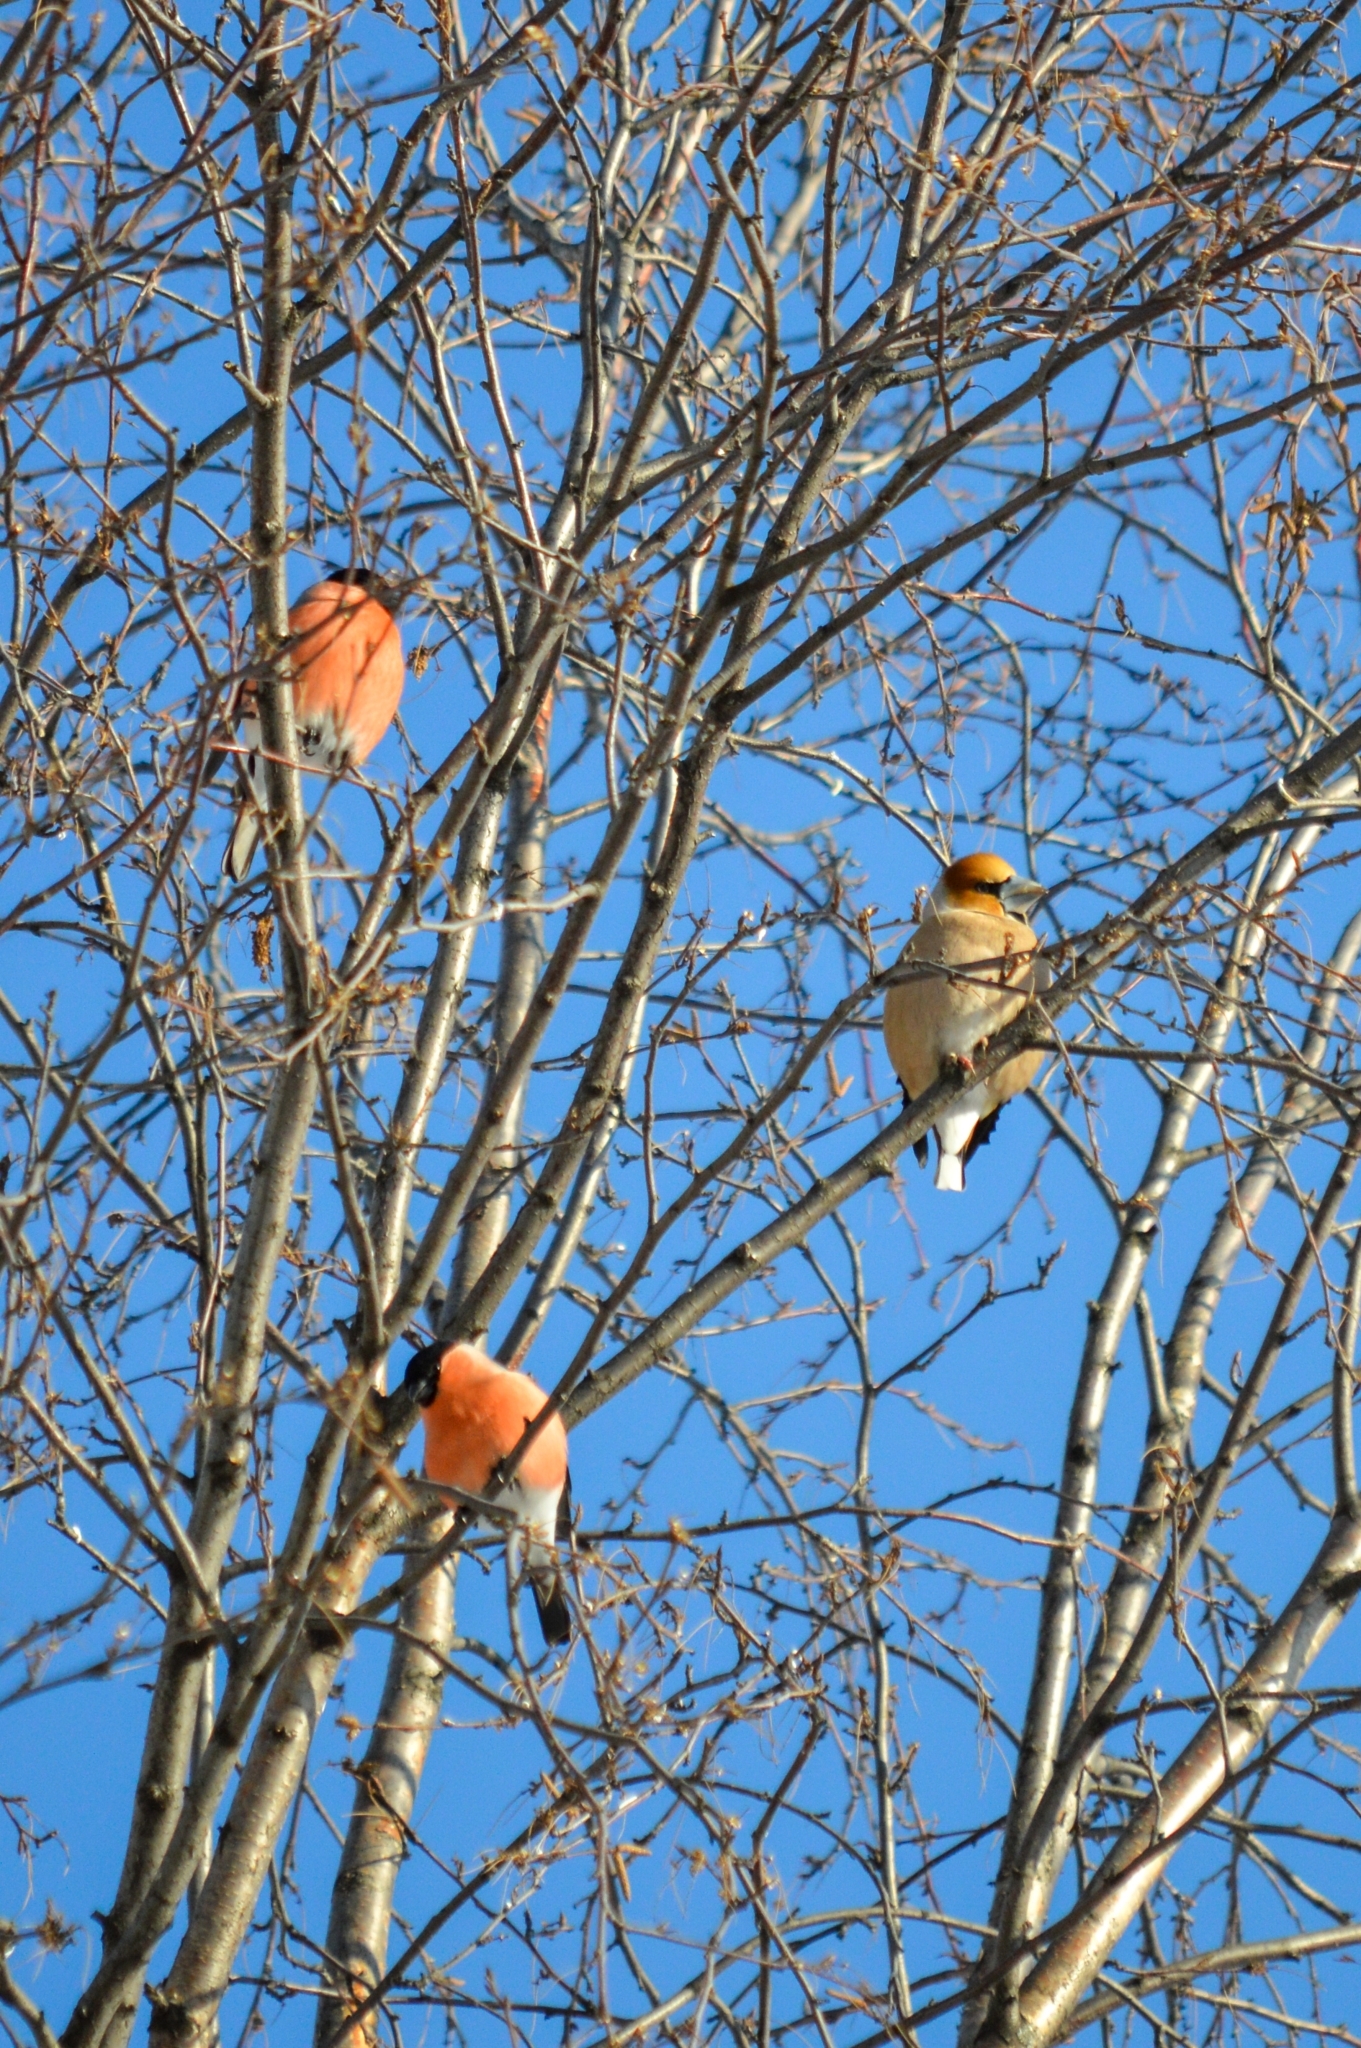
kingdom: Animalia
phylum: Chordata
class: Aves
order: Passeriformes
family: Fringillidae
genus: Coccothraustes
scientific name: Coccothraustes coccothraustes
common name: Hawfinch
